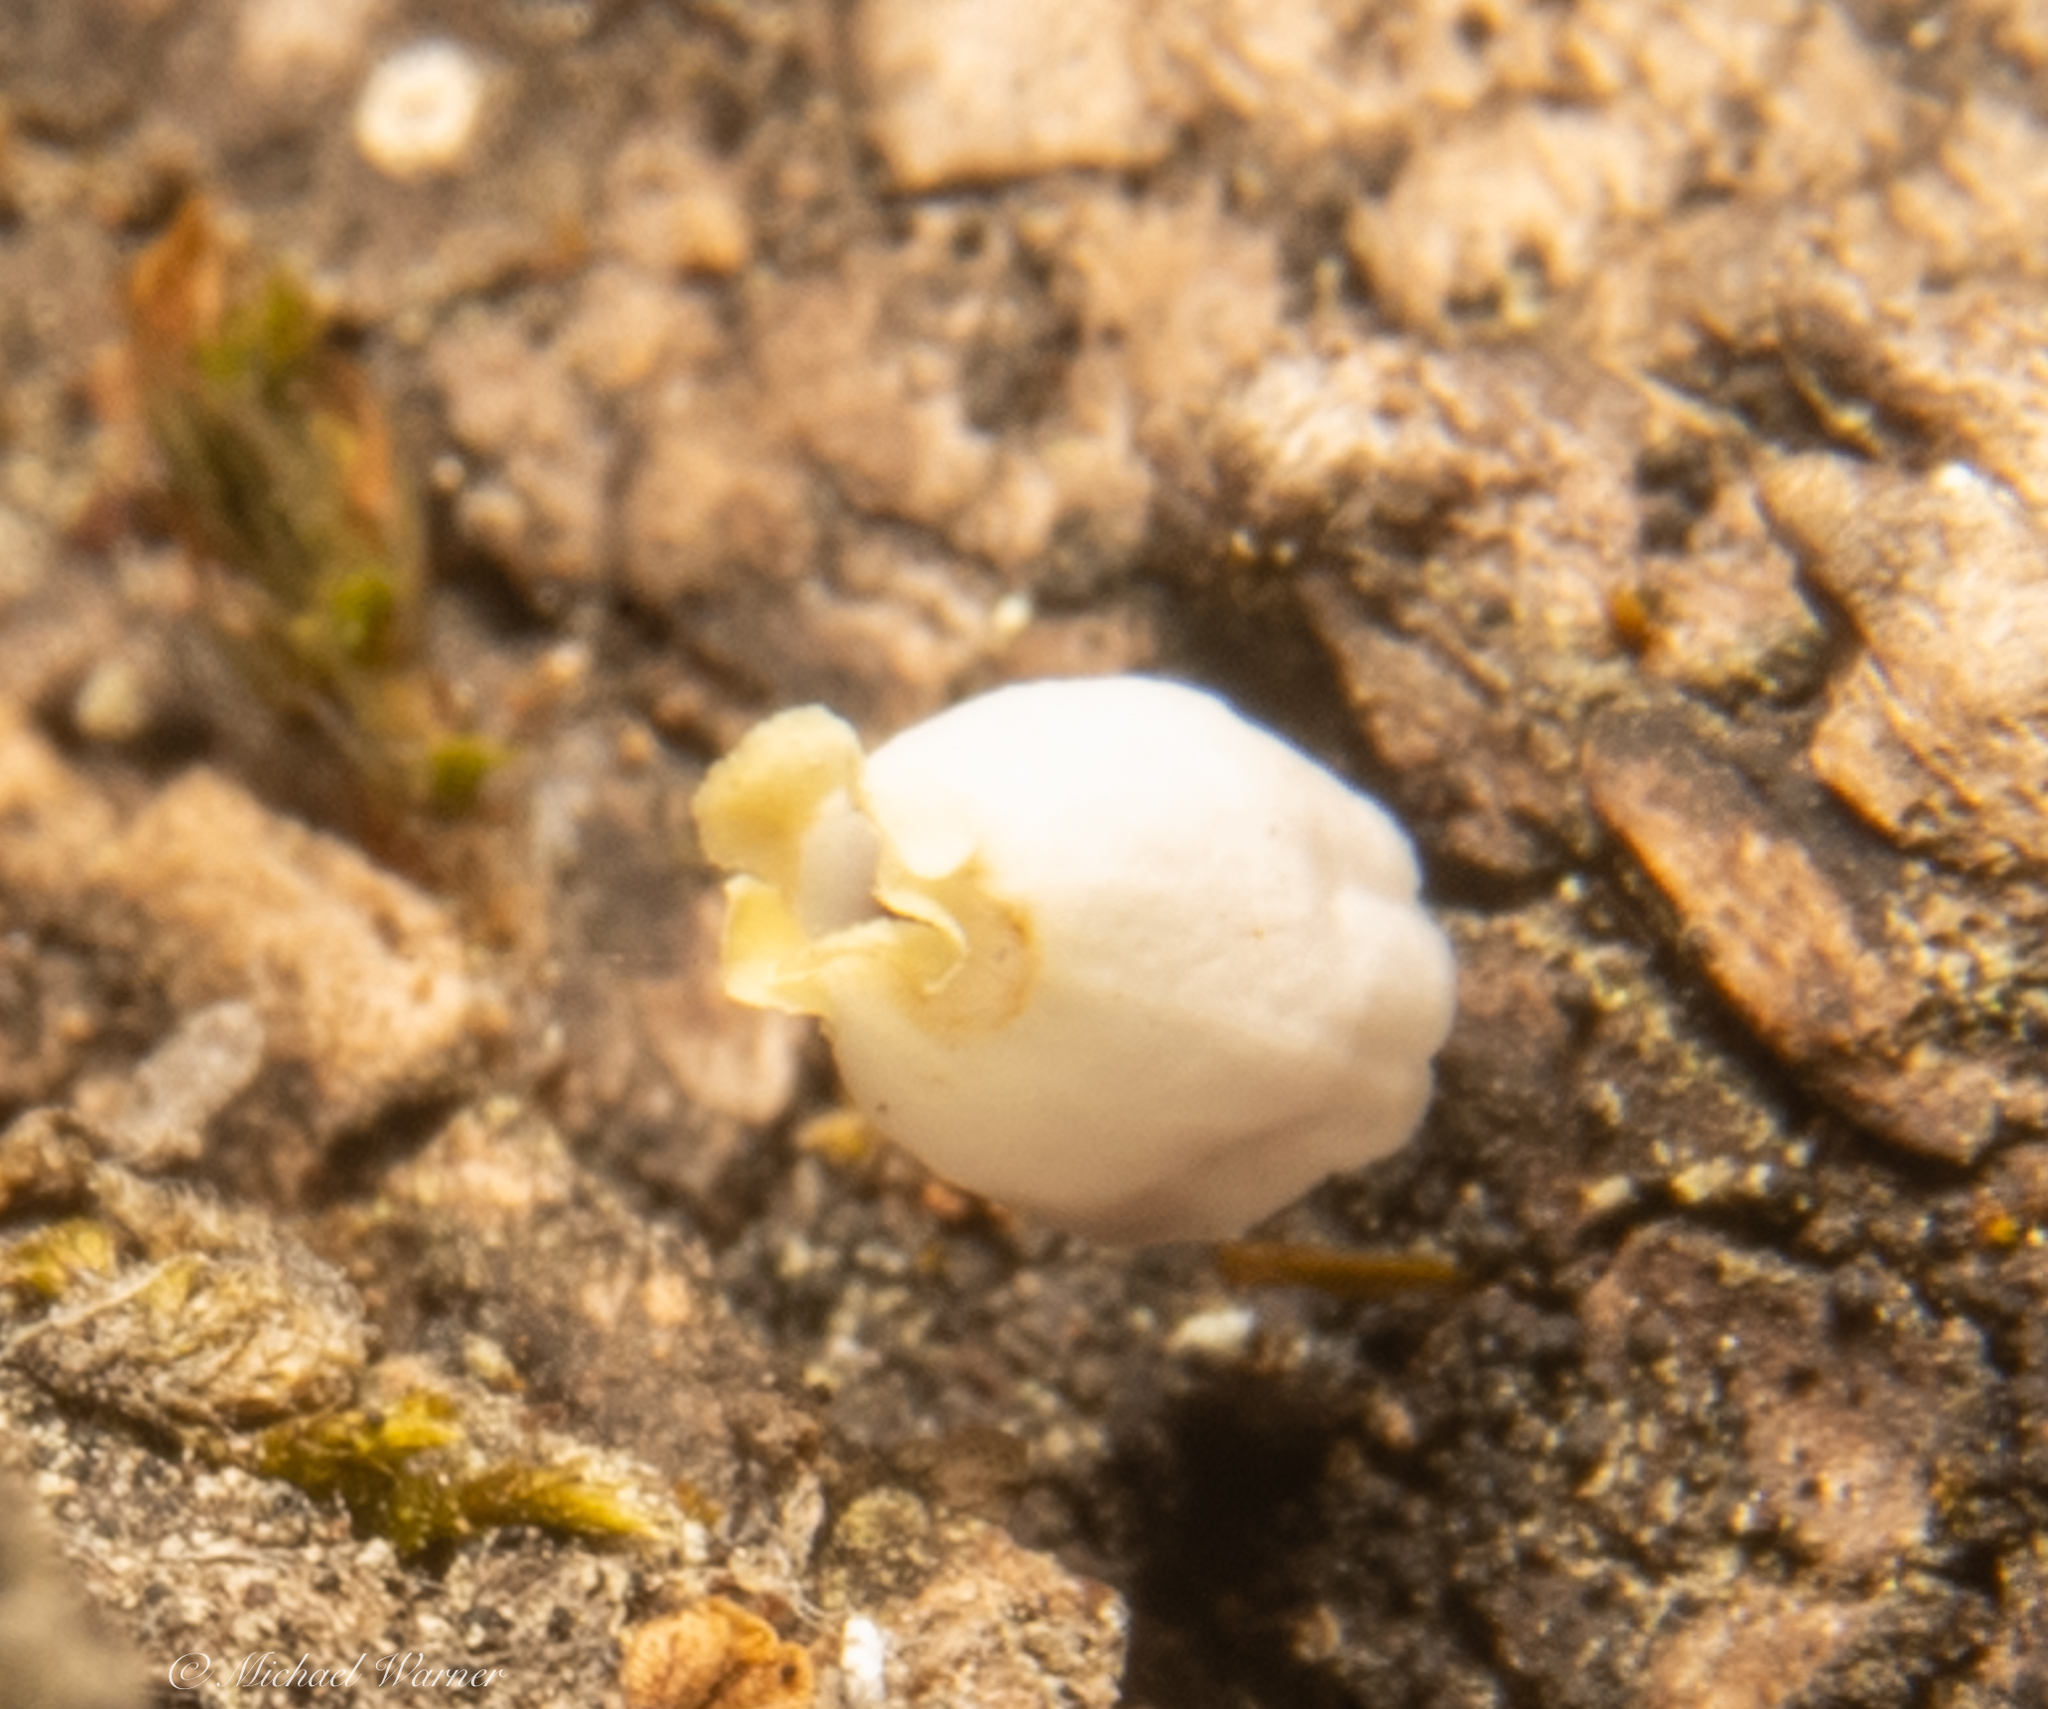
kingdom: Plantae
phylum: Tracheophyta
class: Magnoliopsida
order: Ericales
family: Ericaceae
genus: Arctostaphylos
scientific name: Arctostaphylos pallida
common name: Pallid manzanita
